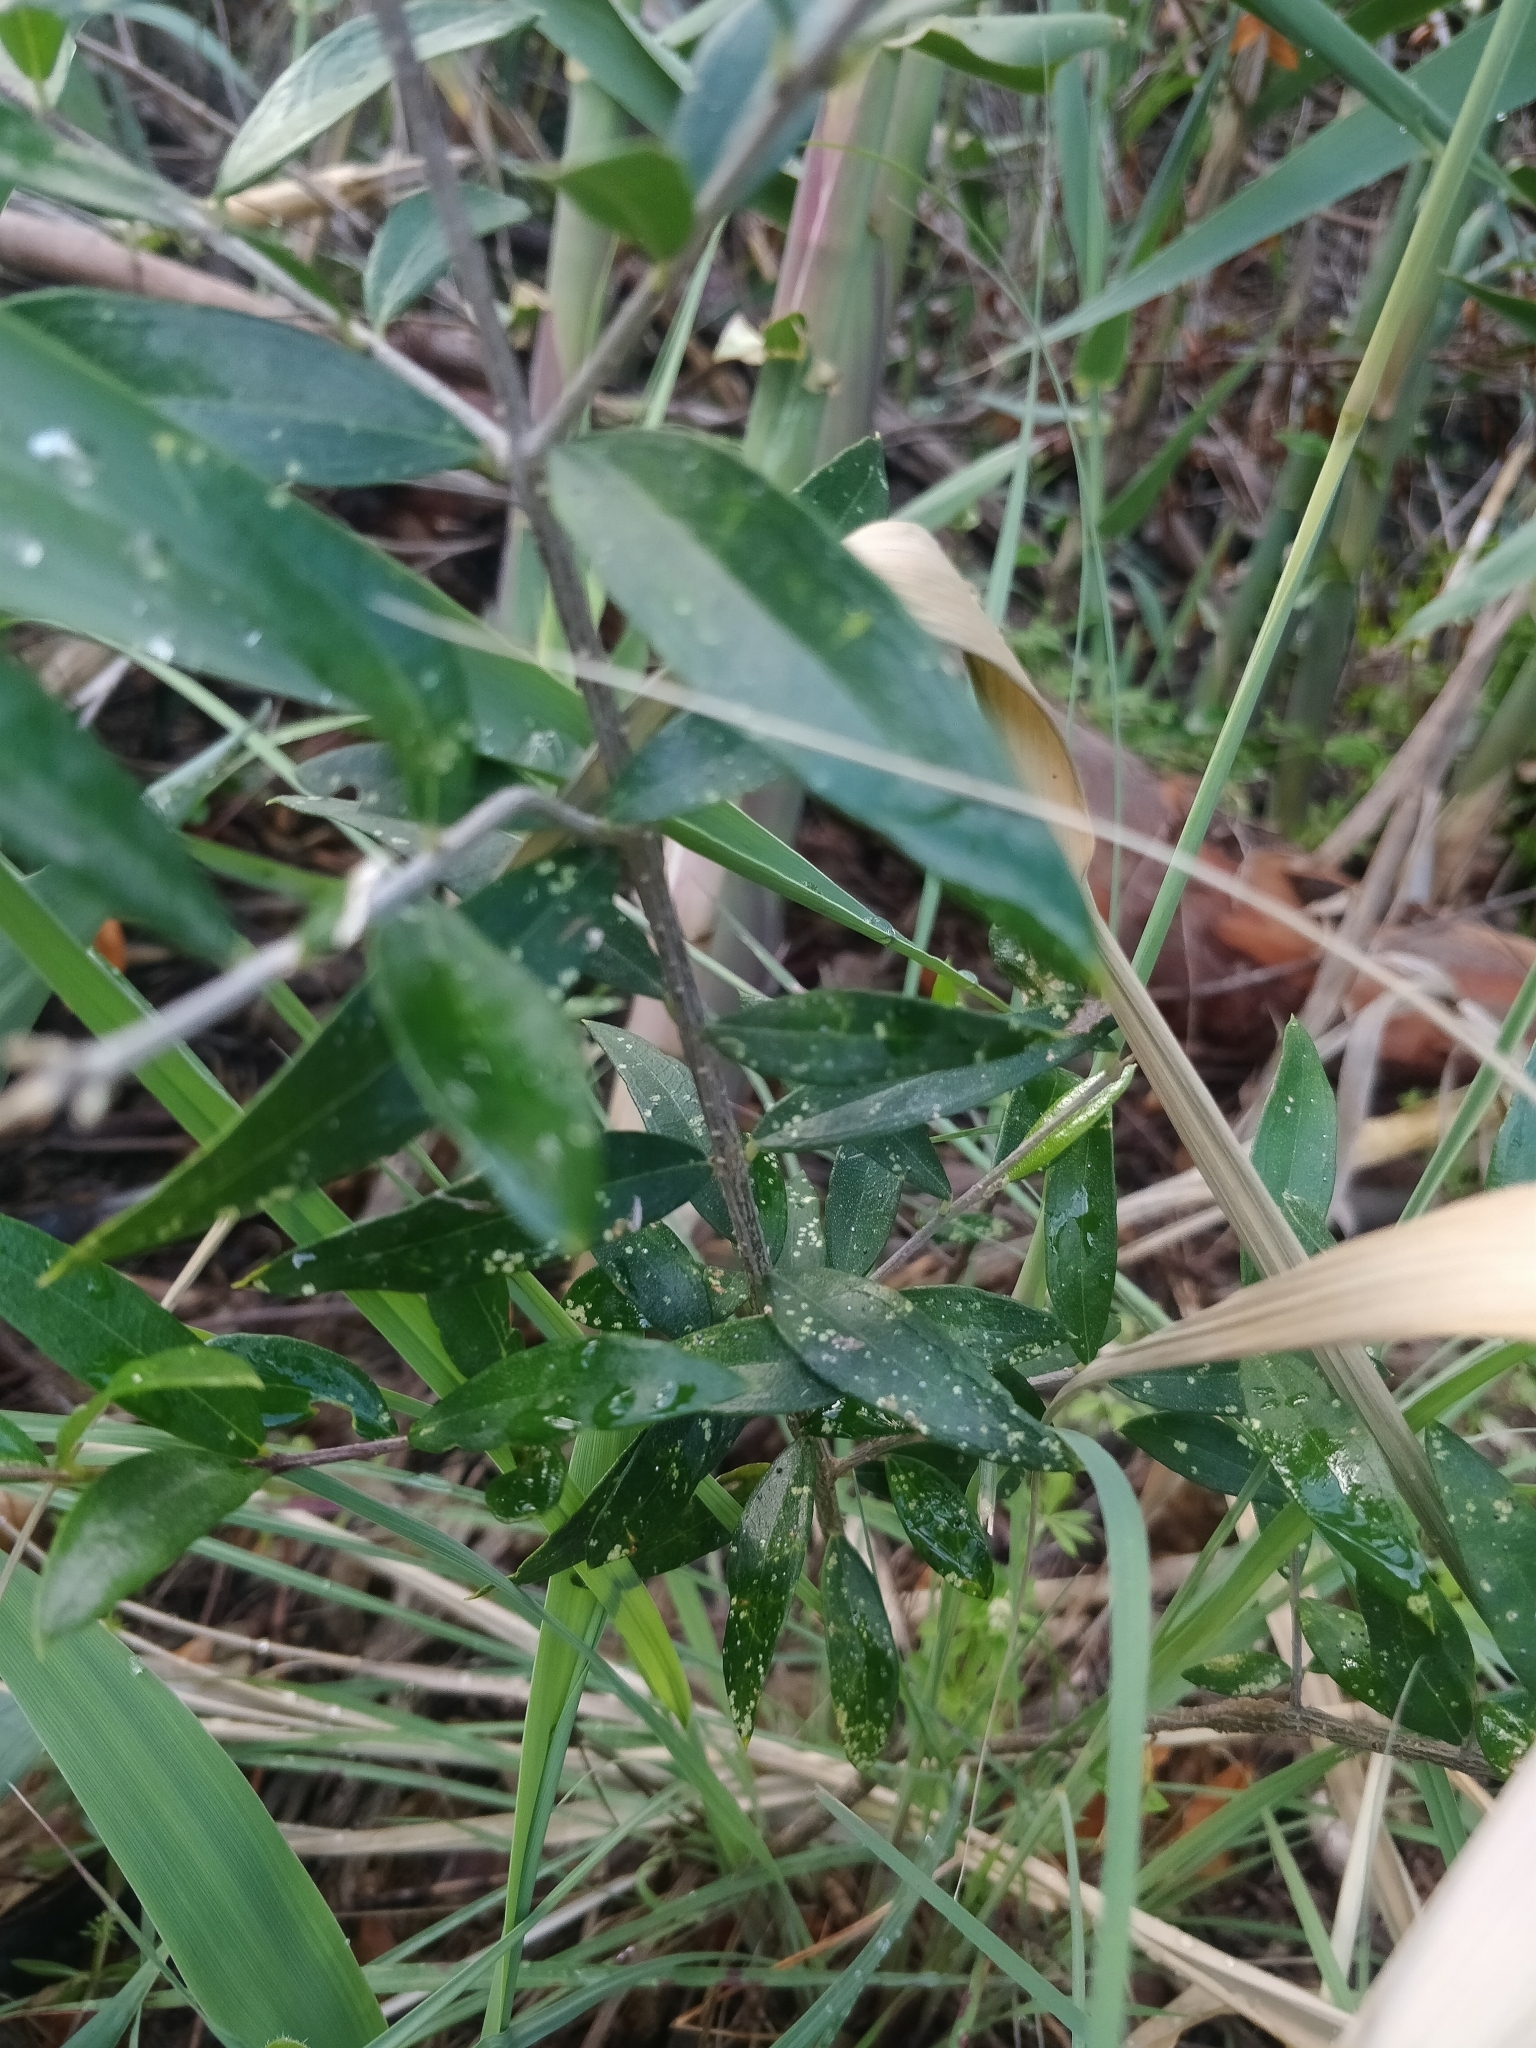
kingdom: Plantae
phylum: Tracheophyta
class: Magnoliopsida
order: Lamiales
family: Oleaceae
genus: Olea
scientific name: Olea europaea
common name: Olive
